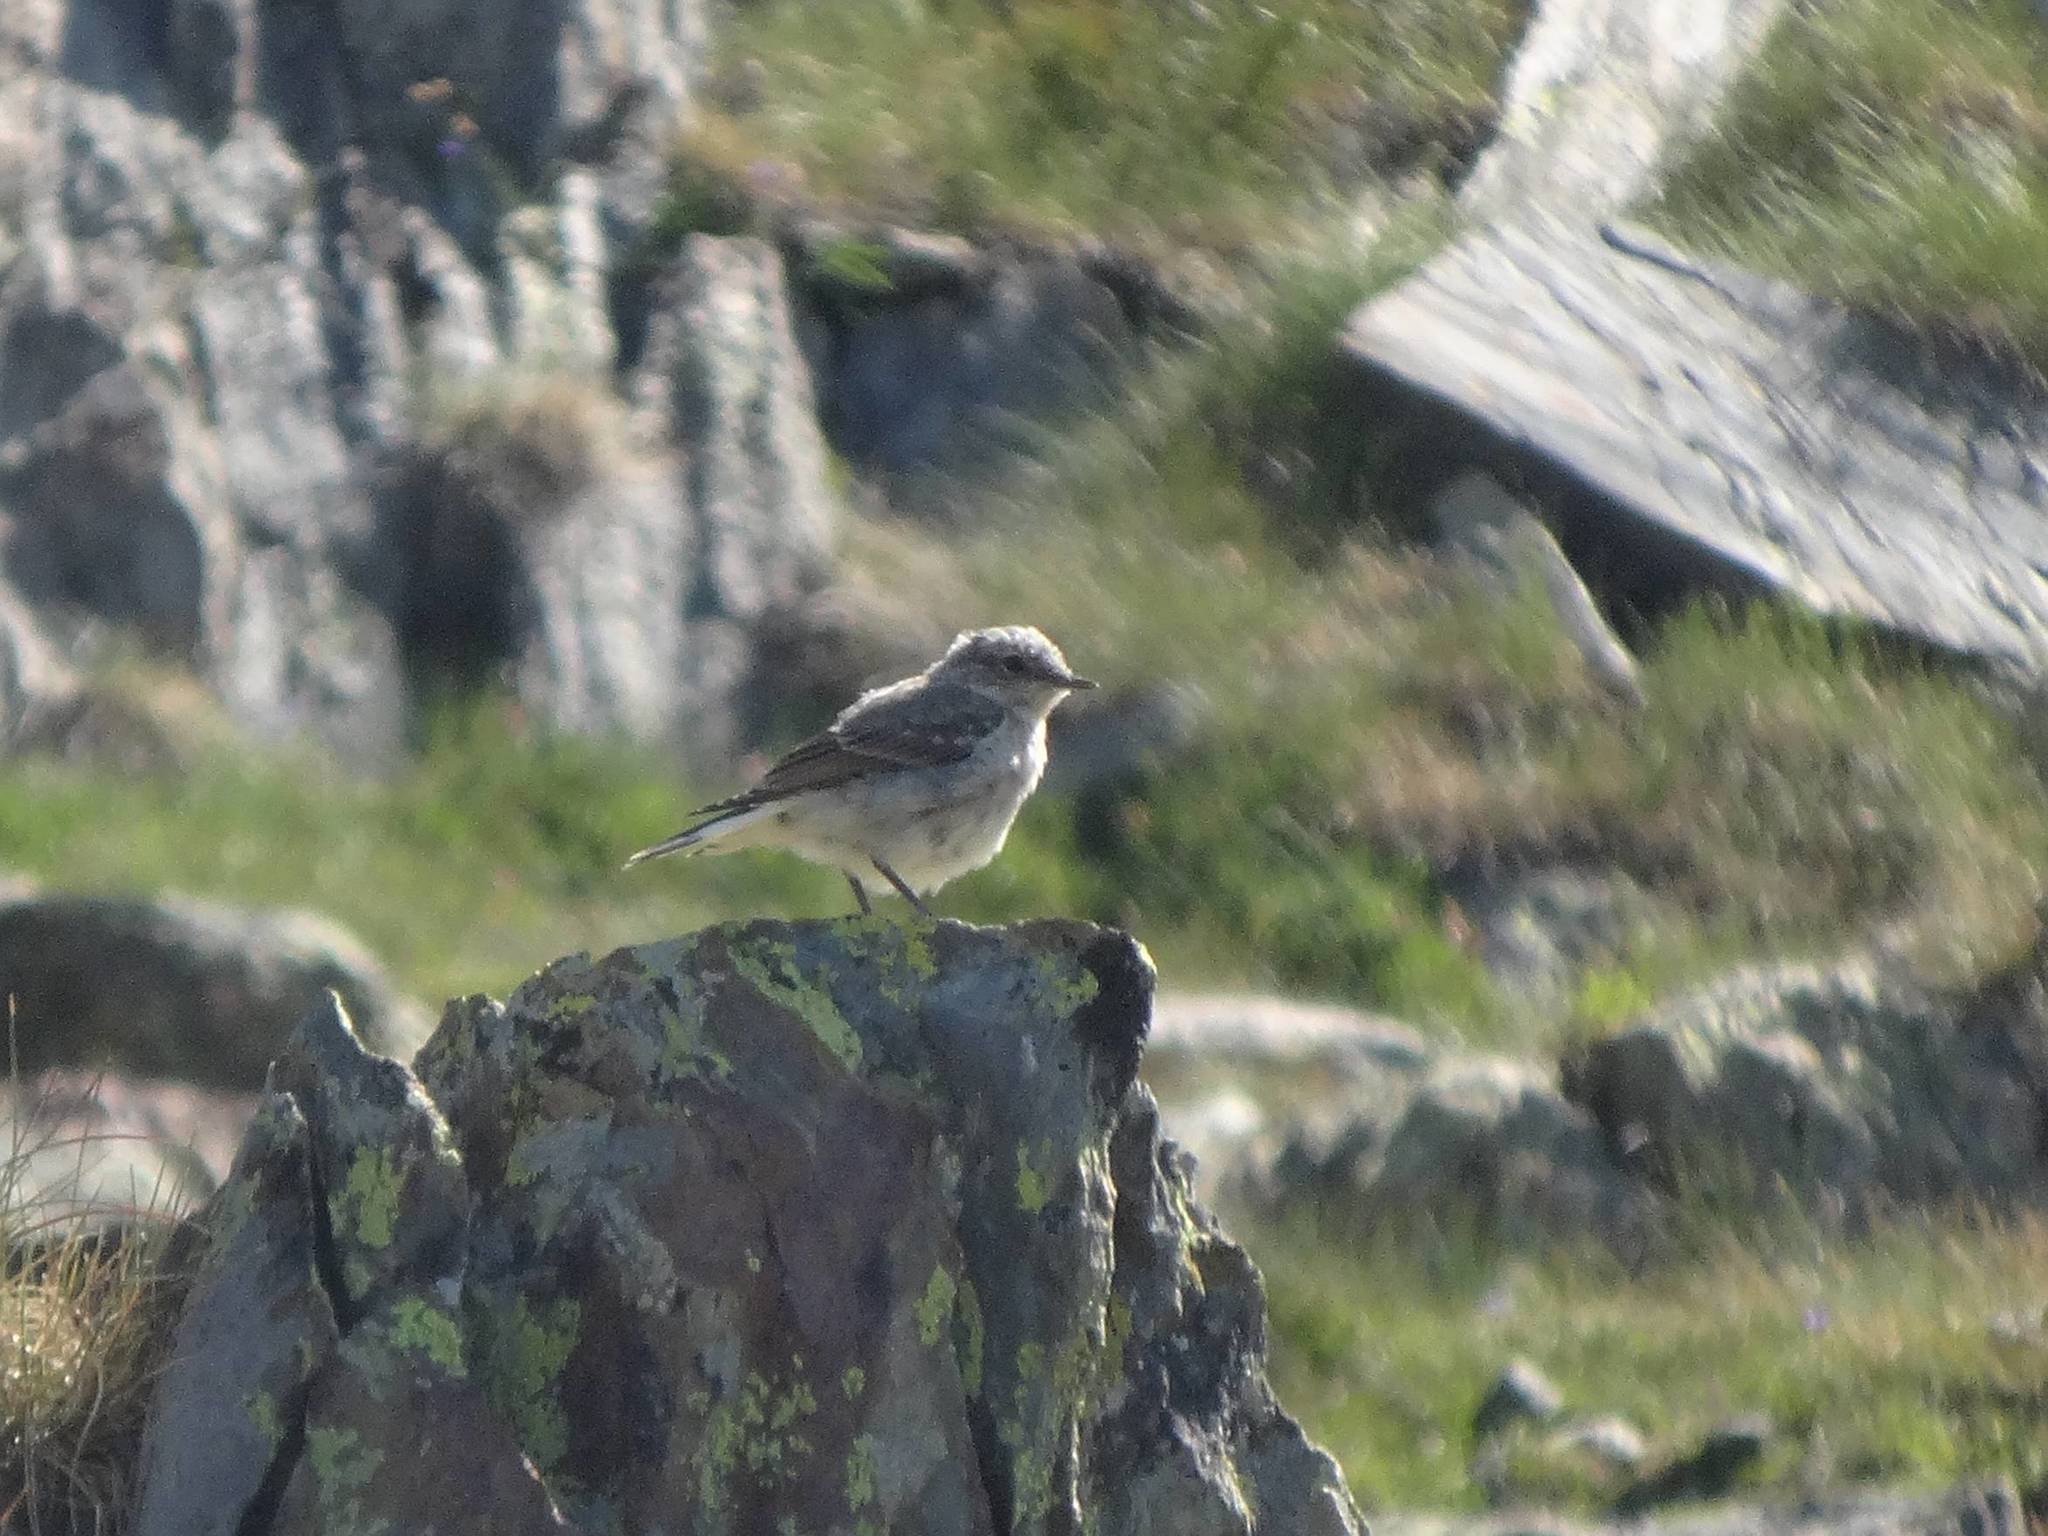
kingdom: Animalia
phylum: Chordata
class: Aves
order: Passeriformes
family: Muscicapidae
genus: Oenanthe
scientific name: Oenanthe oenanthe
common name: Northern wheatear
